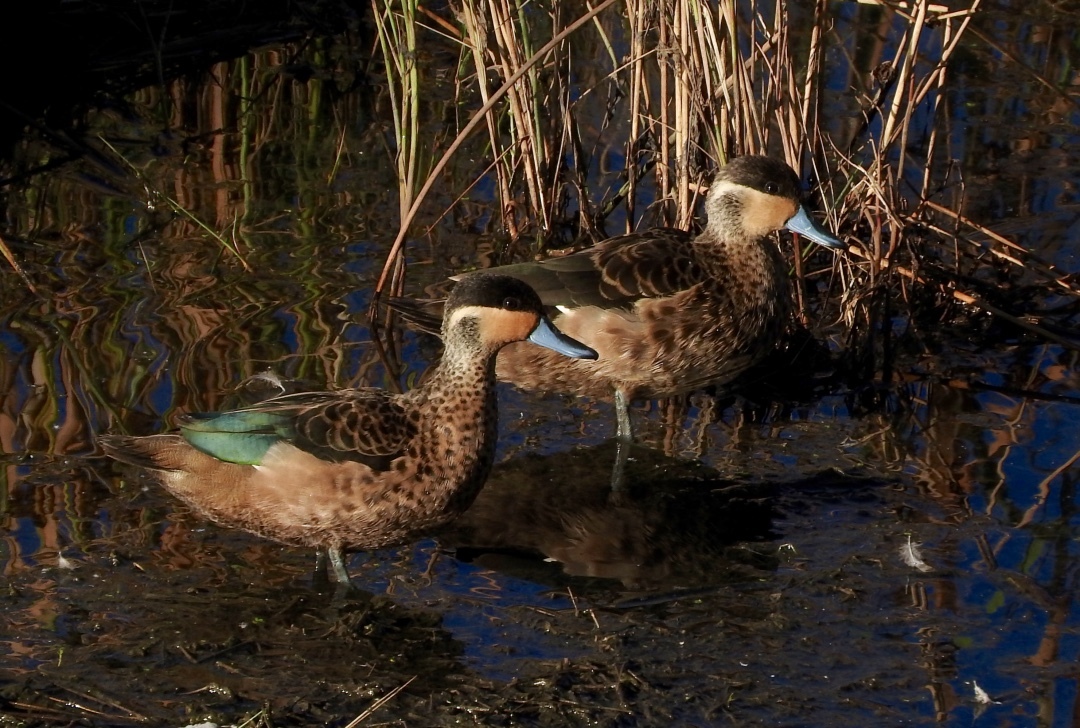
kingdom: Animalia
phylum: Chordata
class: Aves
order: Anseriformes
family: Anatidae
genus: Spatula
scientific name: Spatula hottentota
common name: Blue-billed teal
